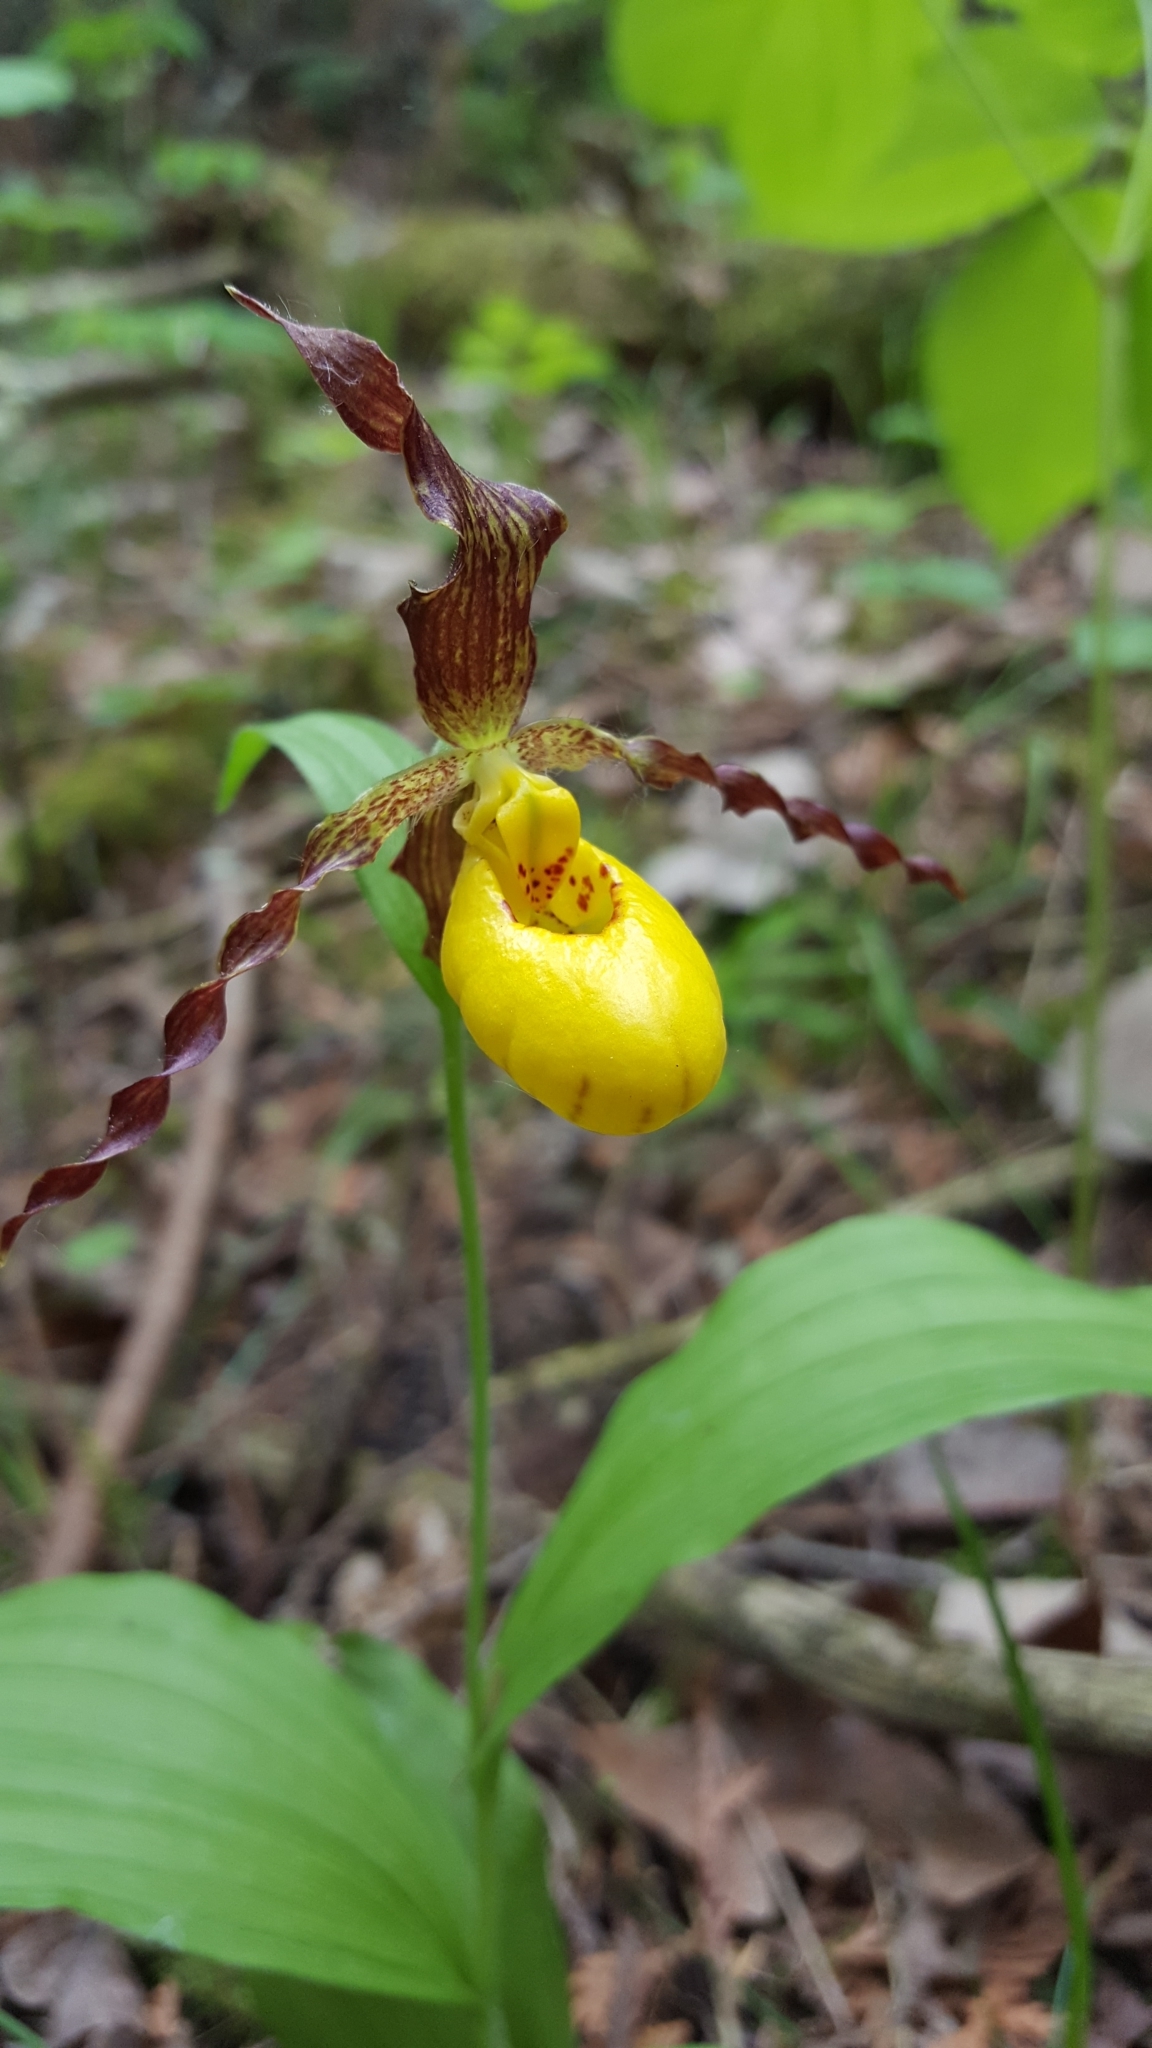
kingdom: Plantae
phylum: Tracheophyta
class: Liliopsida
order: Asparagales
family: Orchidaceae
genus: Cypripedium
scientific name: Cypripedium parviflorum
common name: American yellow lady's-slipper
